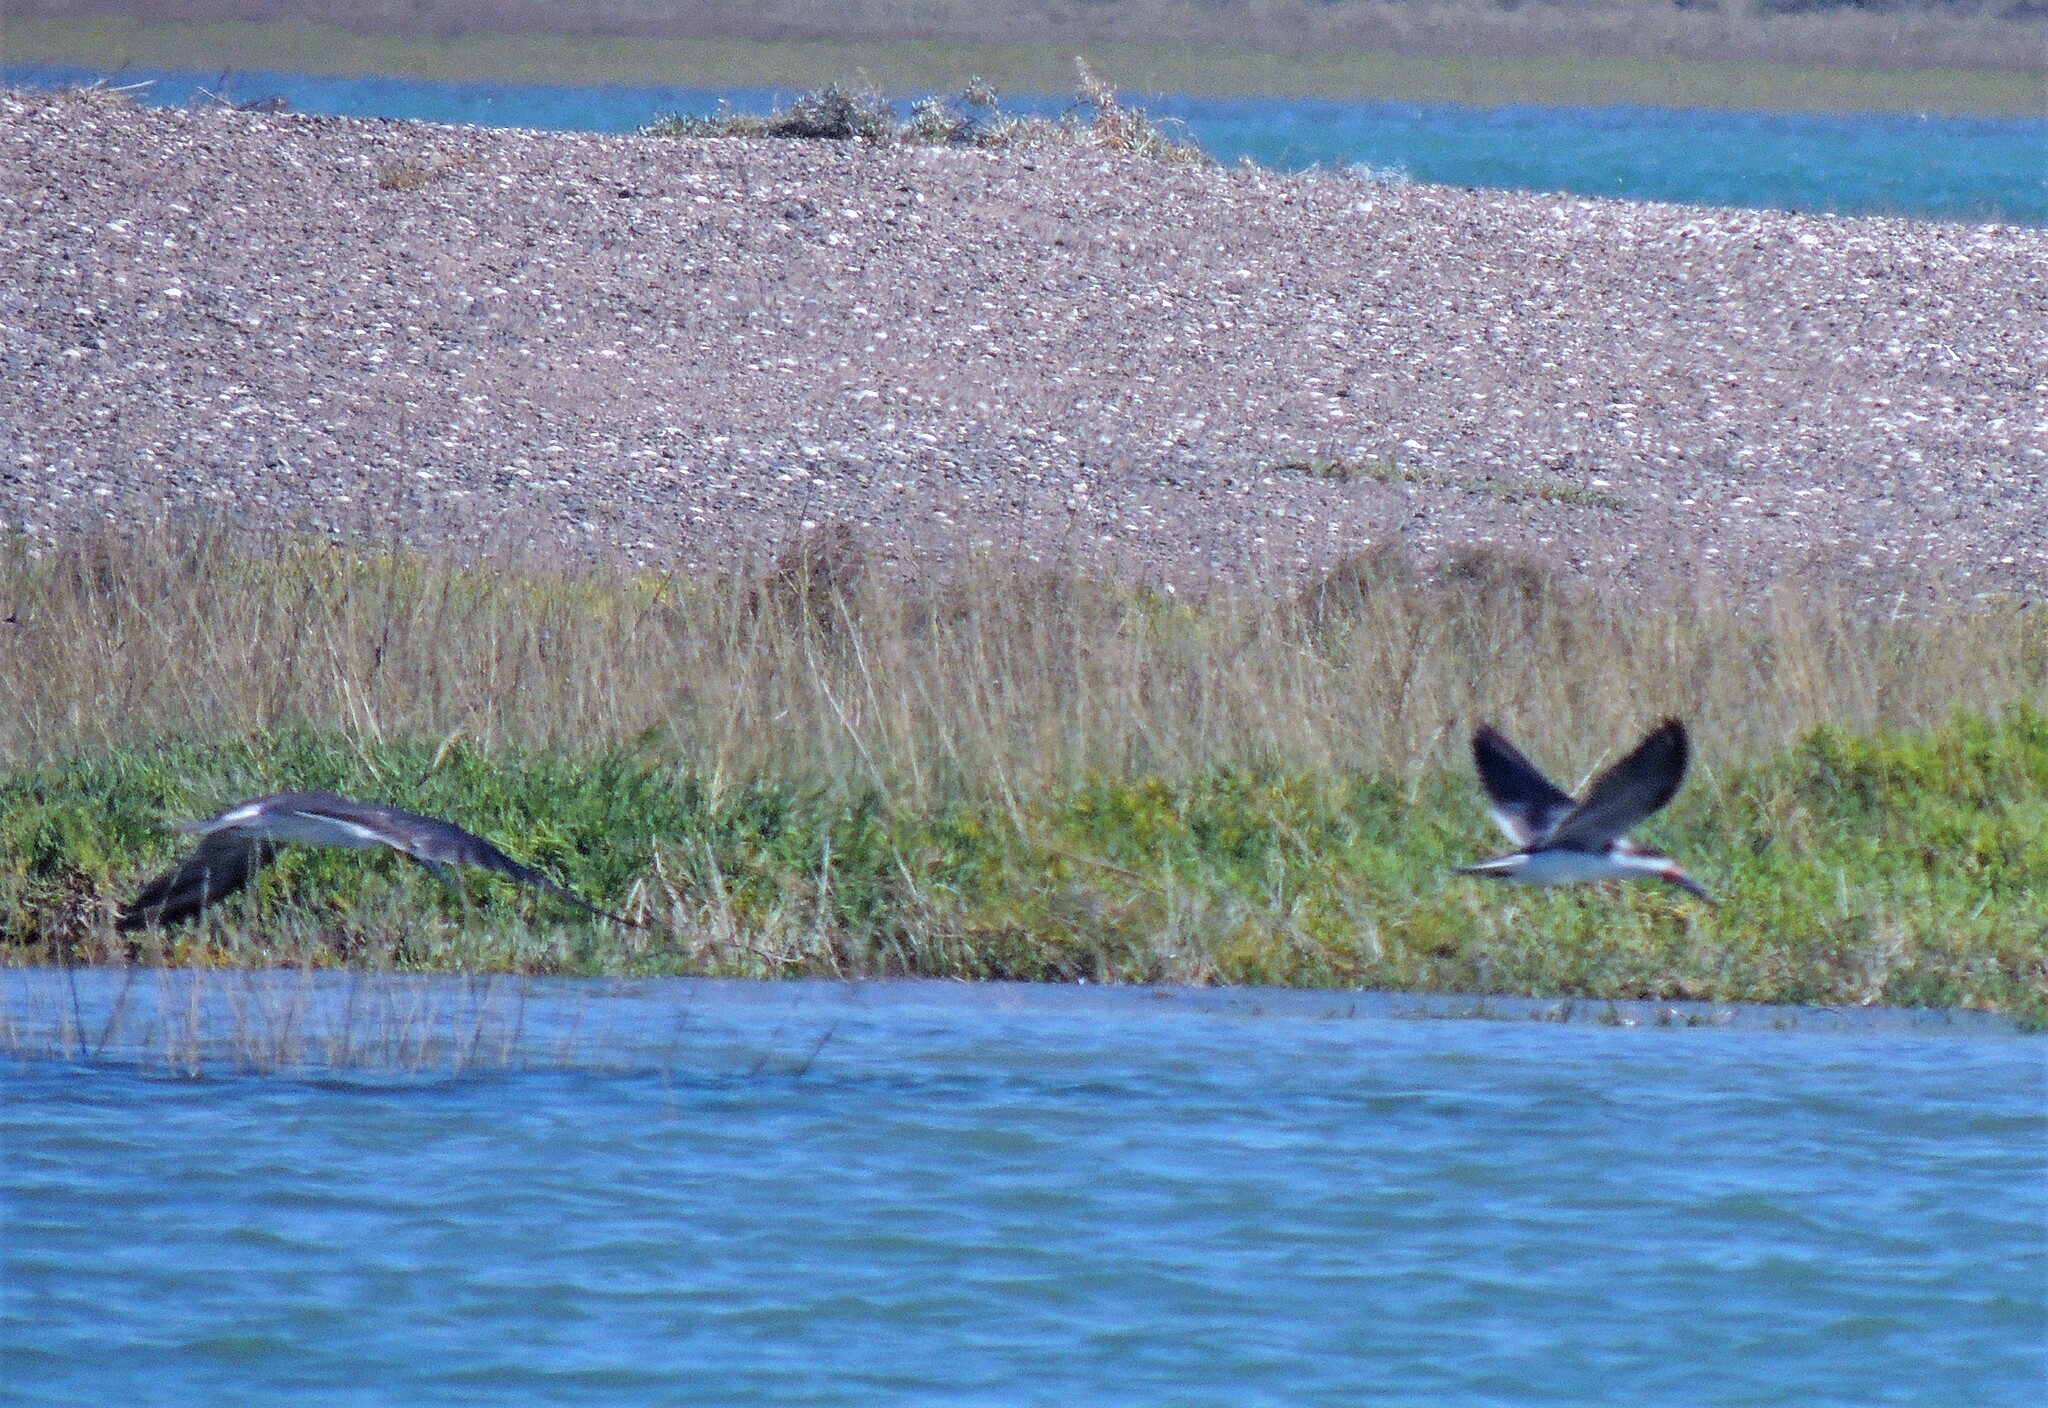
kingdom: Animalia
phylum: Chordata
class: Aves
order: Charadriiformes
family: Laridae
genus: Rynchops
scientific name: Rynchops niger
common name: Black skimmer
